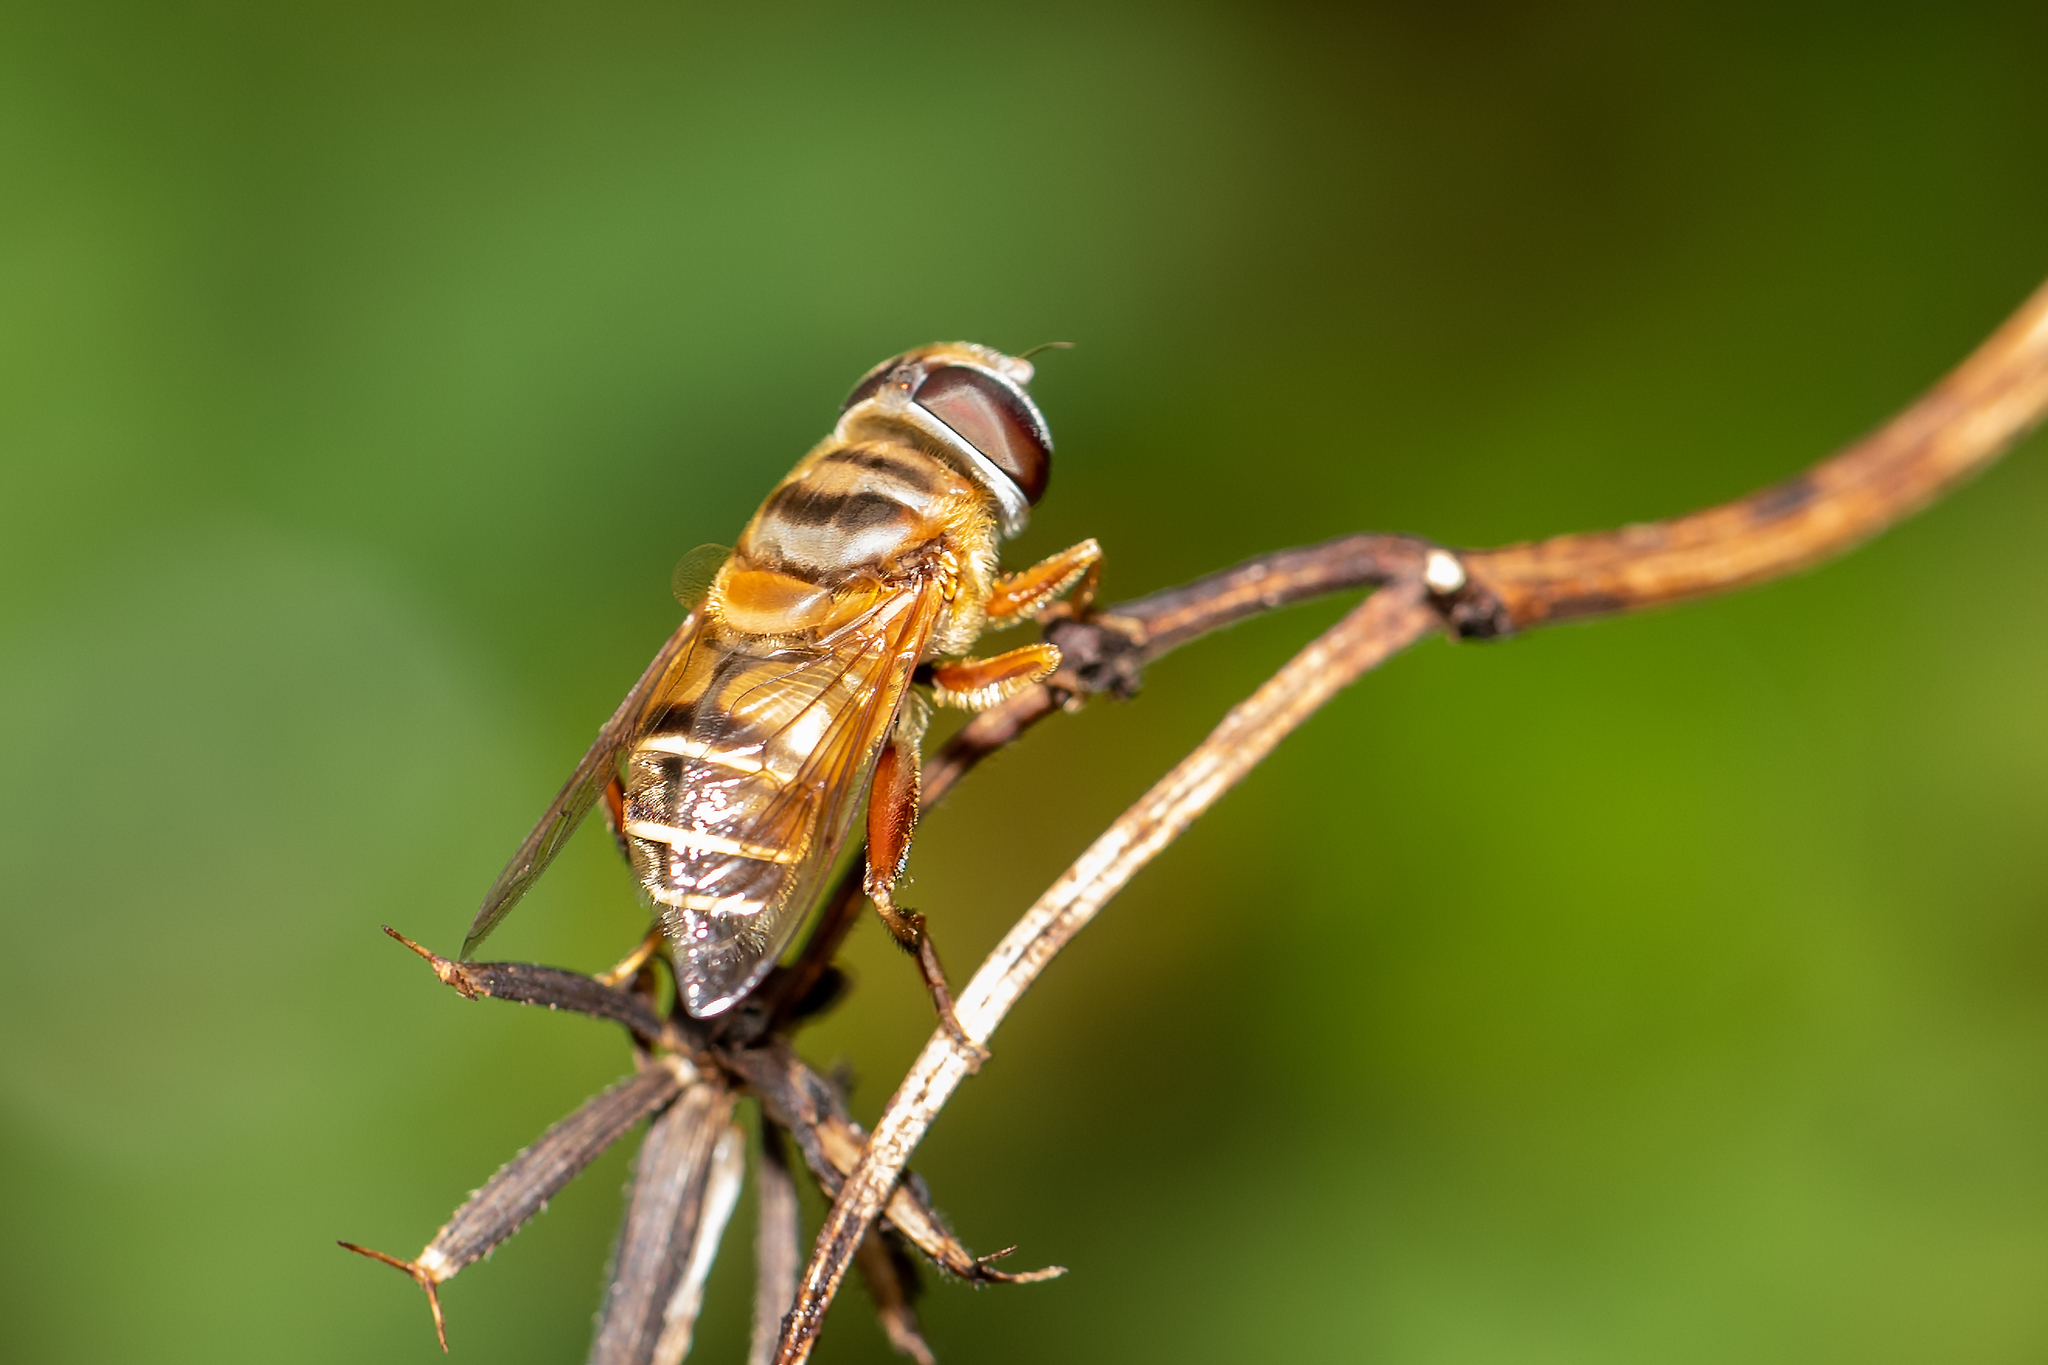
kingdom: Animalia
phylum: Arthropoda
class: Insecta
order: Diptera
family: Syrphidae
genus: Palpada
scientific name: Palpada vinetorum
